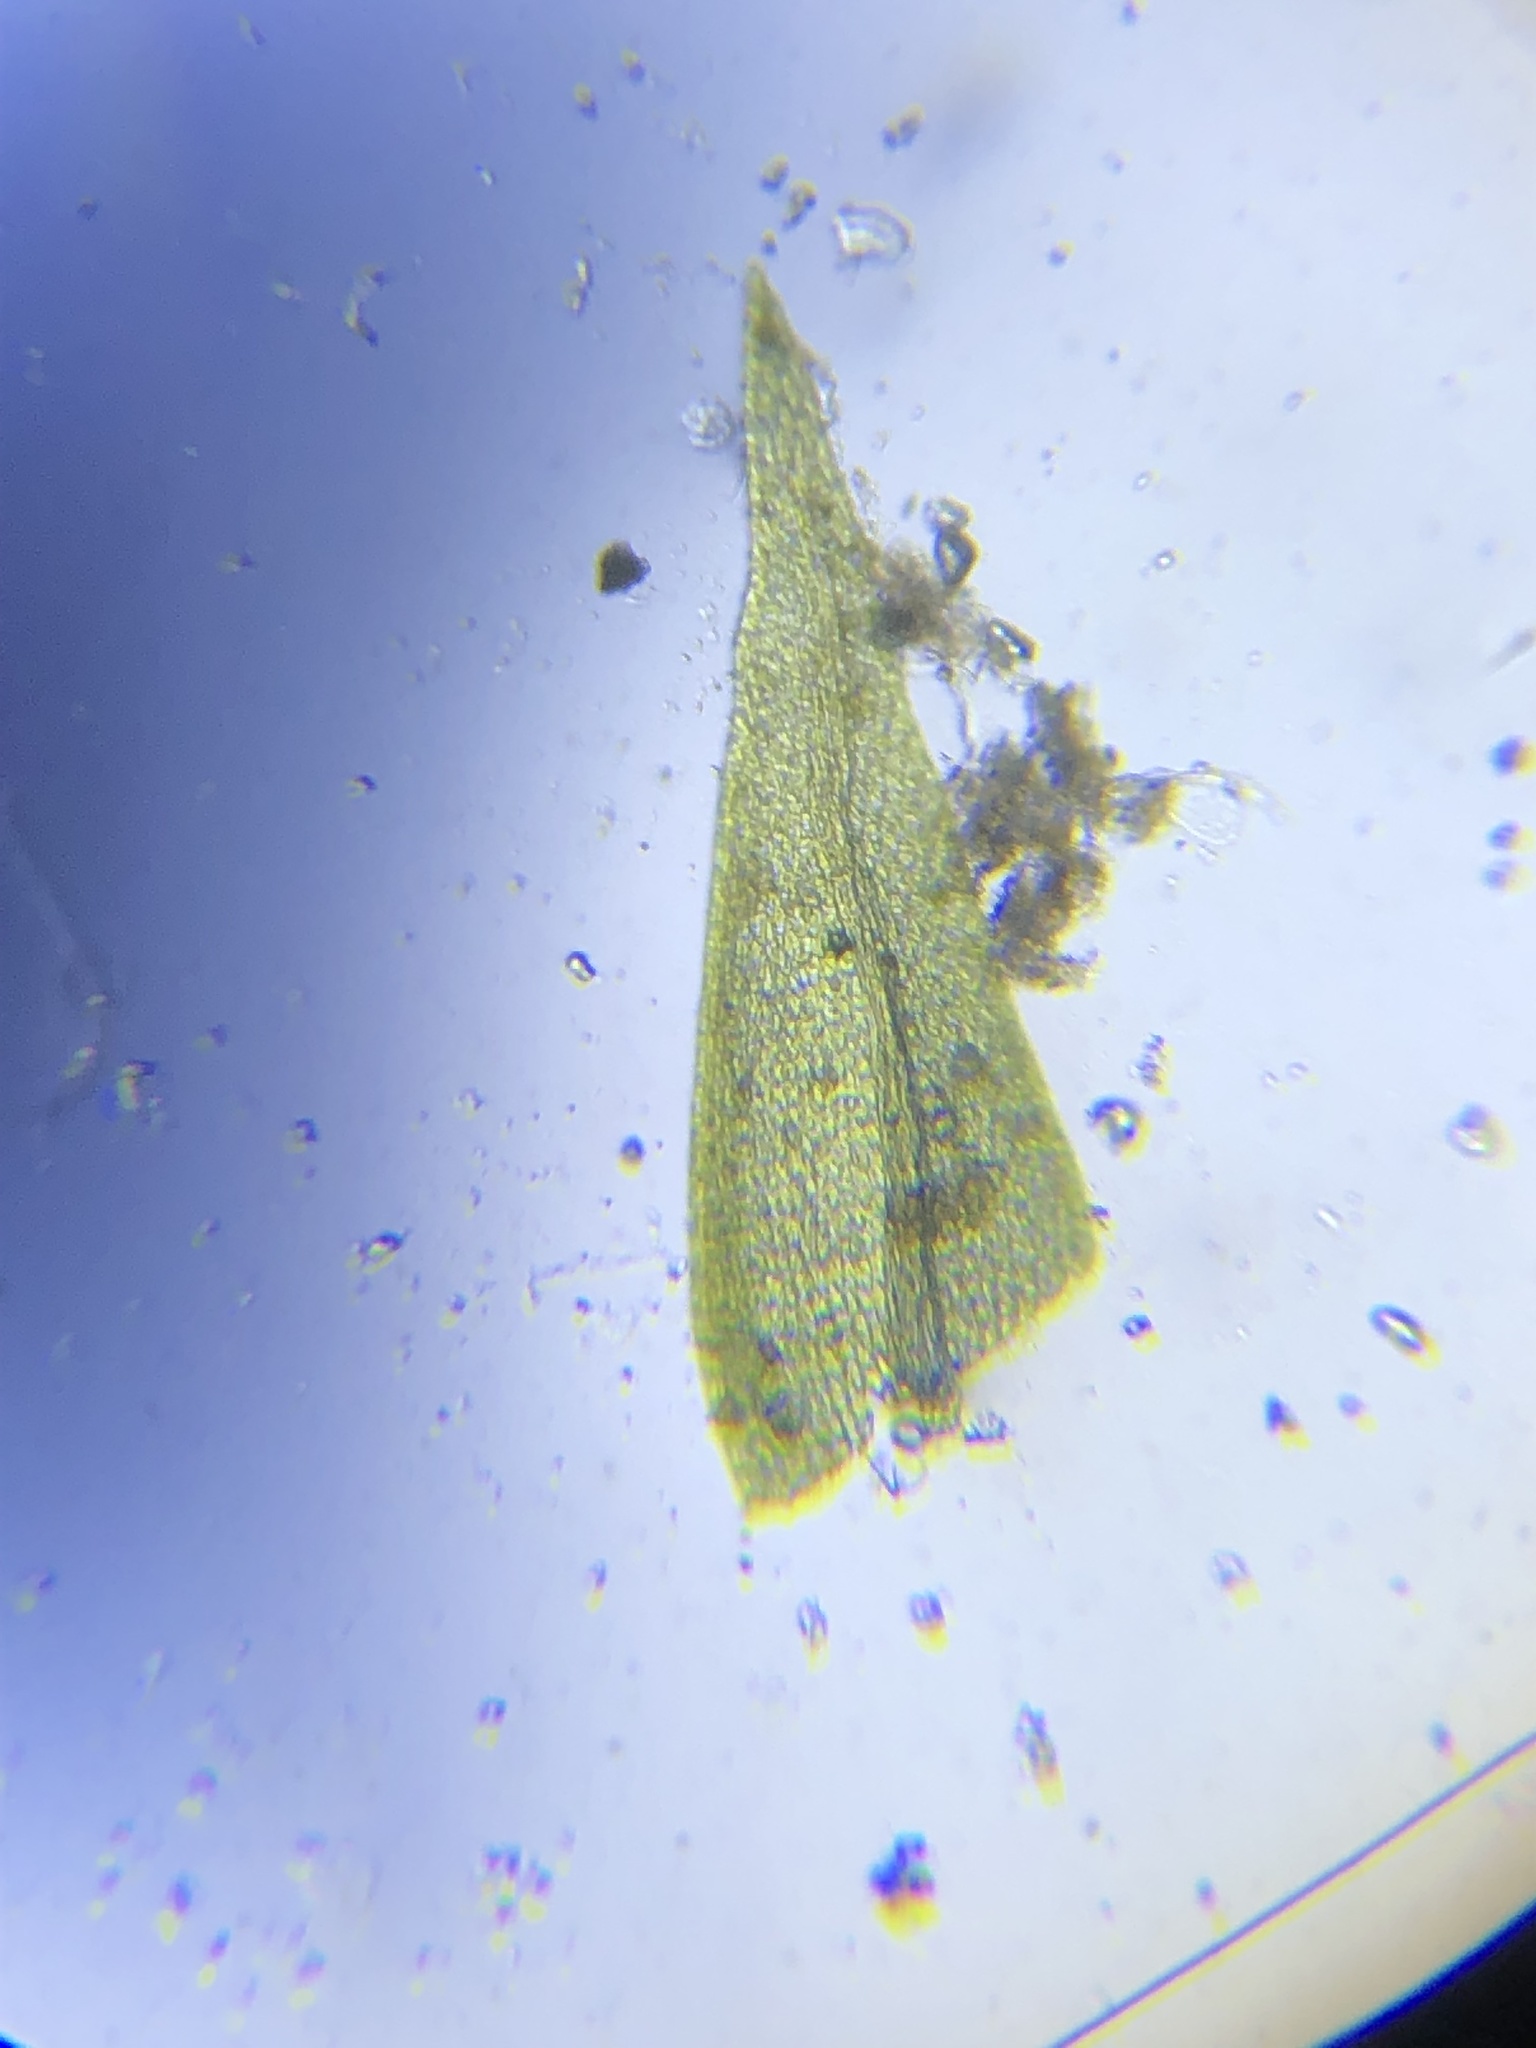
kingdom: Plantae
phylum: Bryophyta
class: Bryopsida
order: Hypnales
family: Amblystegiaceae
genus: Hygroamblystegium
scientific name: Hygroamblystegium varium
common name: Willow feather-moss
